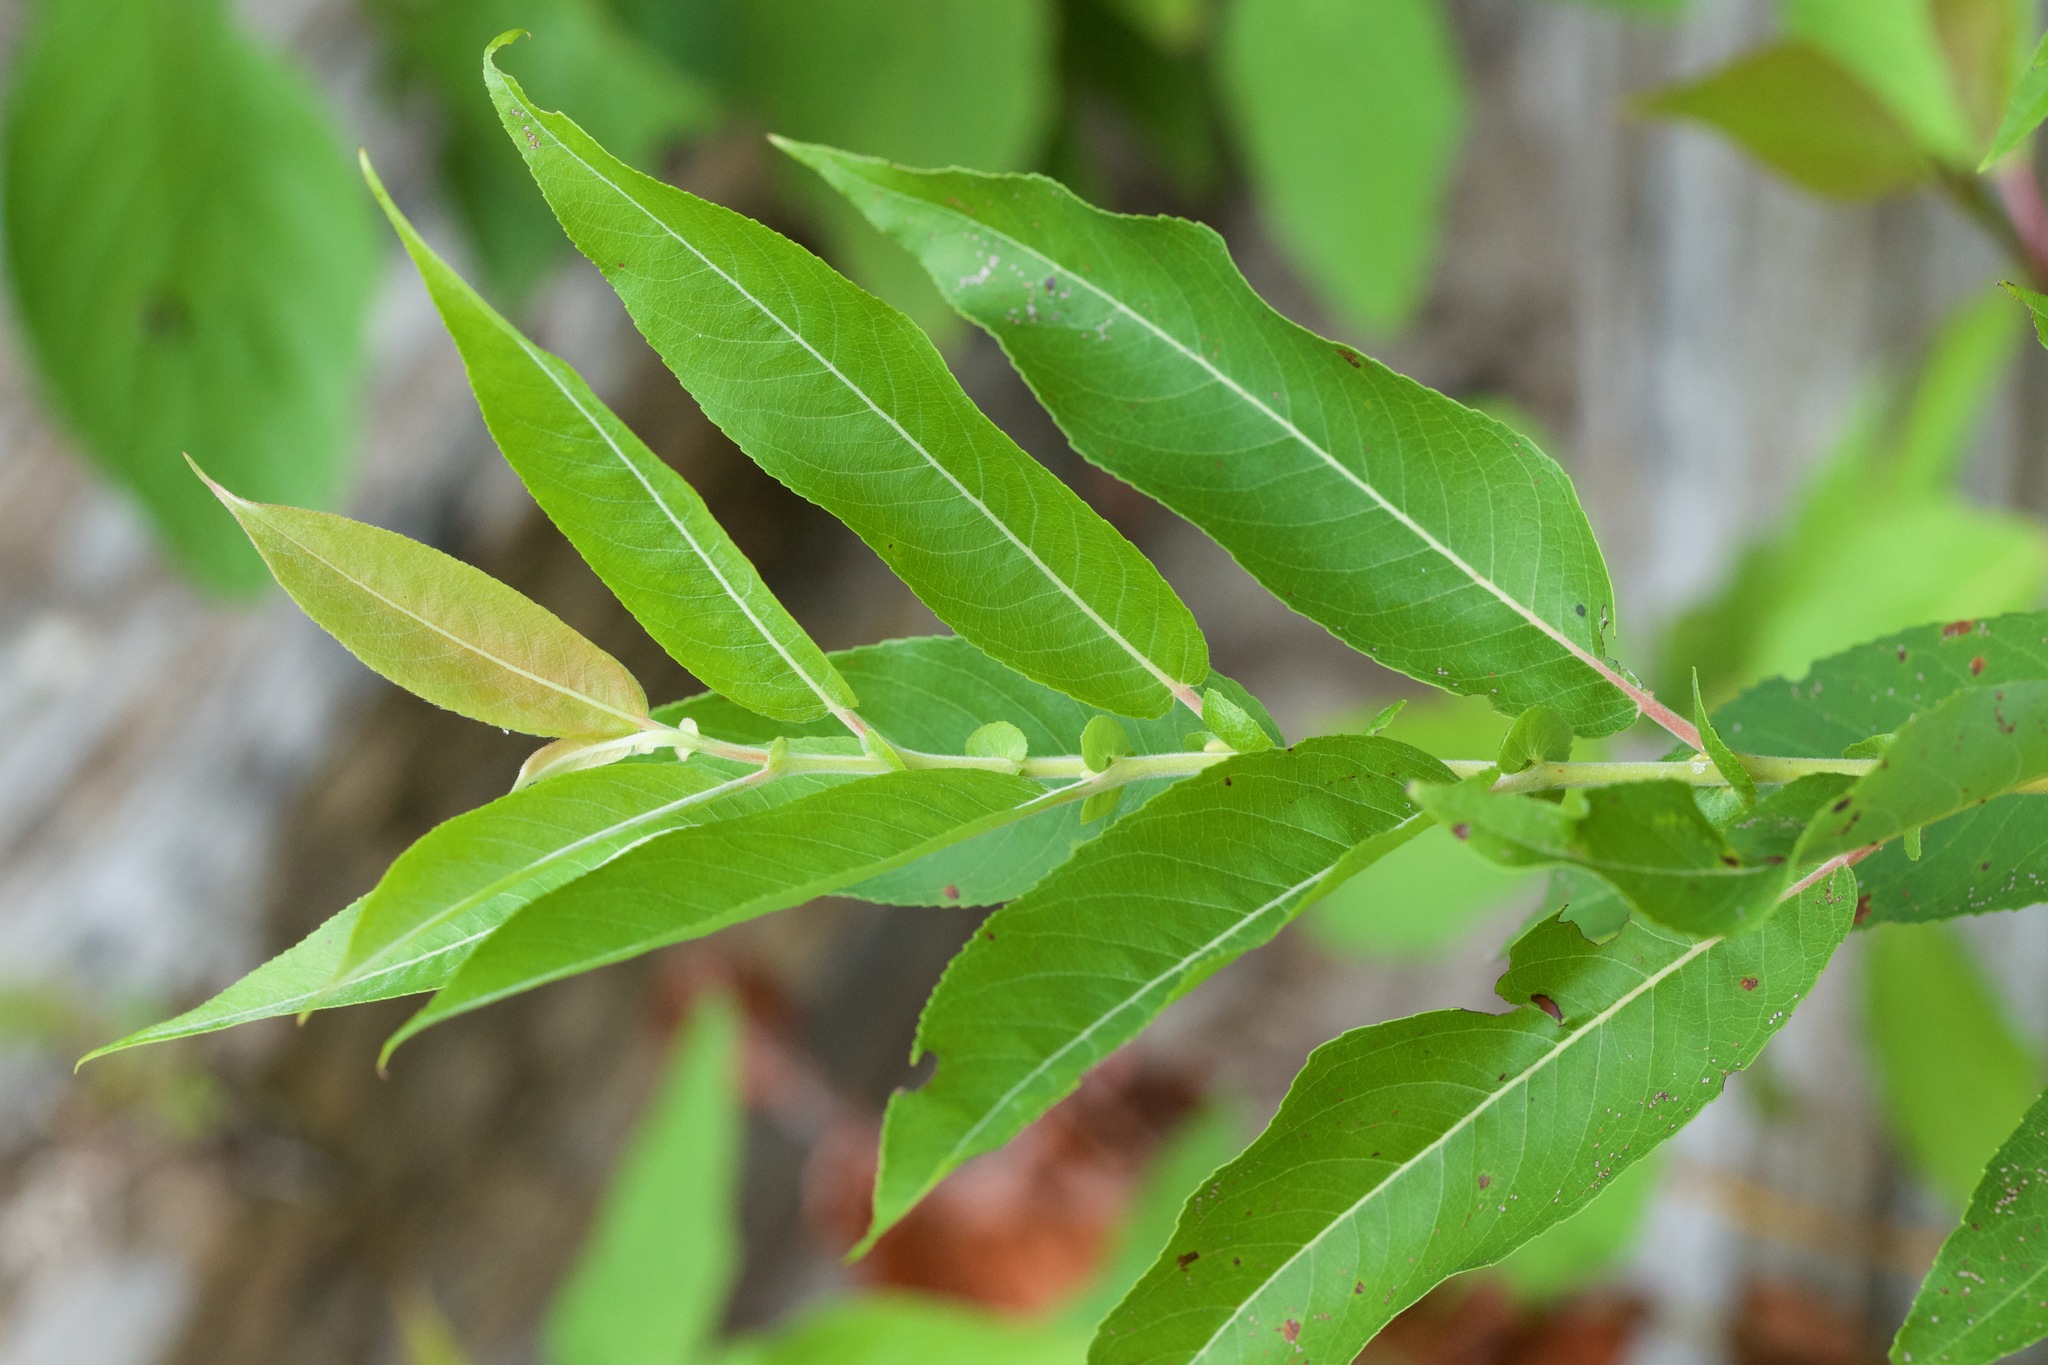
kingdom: Plantae
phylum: Tracheophyta
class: Magnoliopsida
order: Malpighiales
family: Salicaceae
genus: Salix
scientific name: Salix eriocephala
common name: Heart-leaved willow
